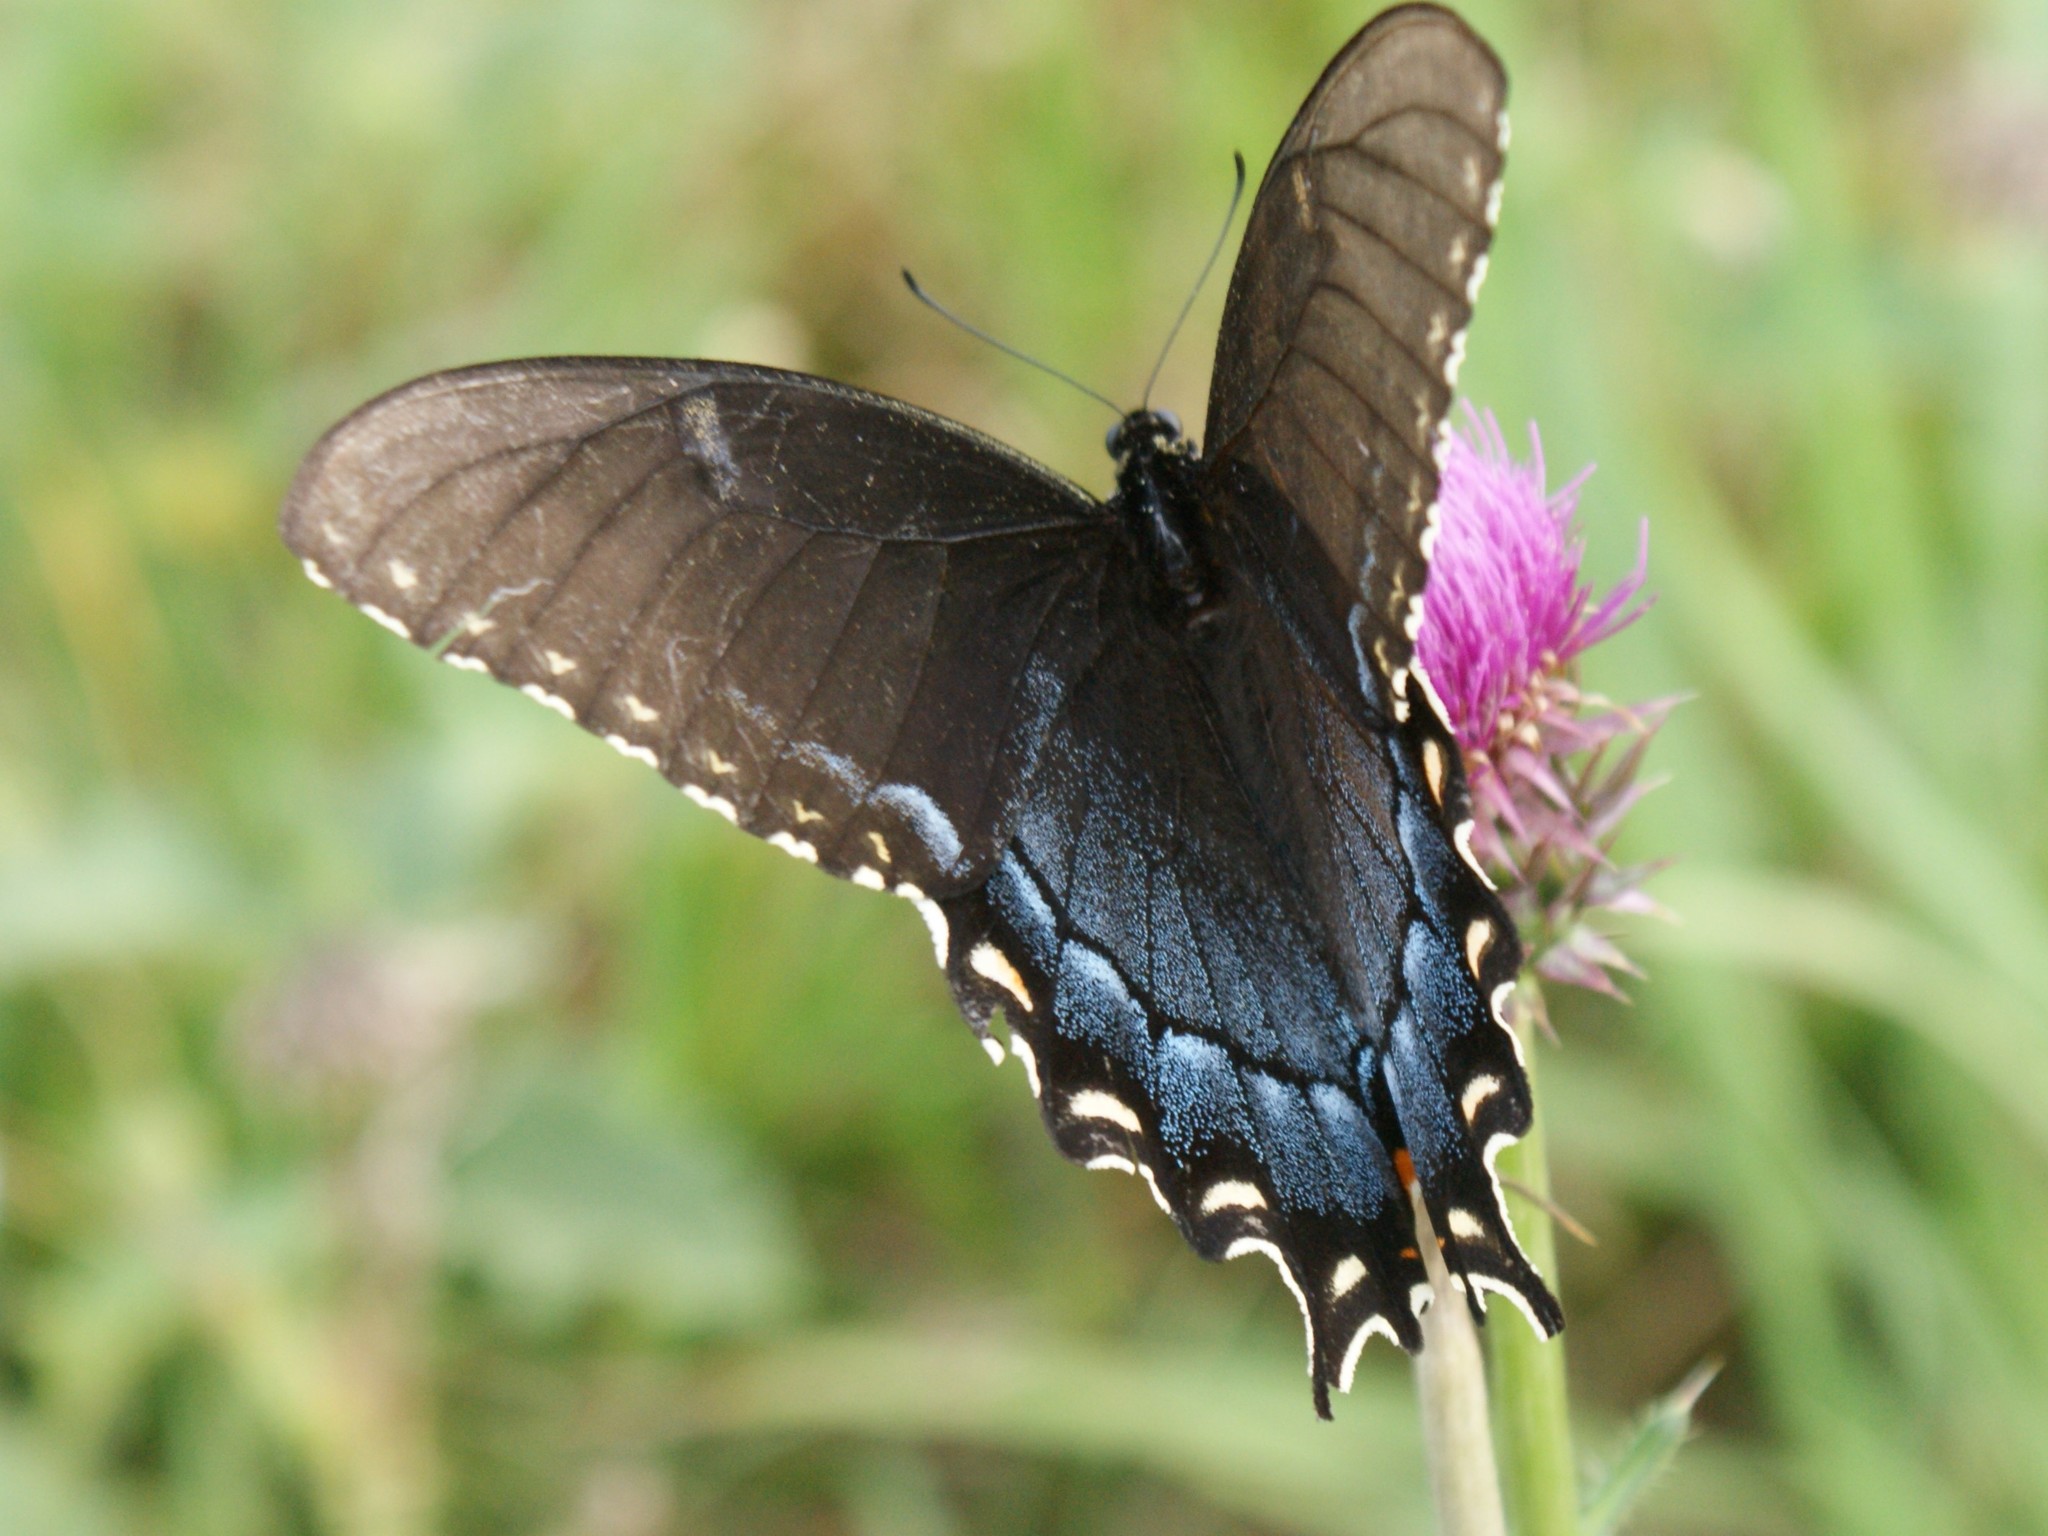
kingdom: Animalia
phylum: Arthropoda
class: Insecta
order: Lepidoptera
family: Papilionidae
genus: Papilio
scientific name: Papilio glaucus
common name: Tiger swallowtail
